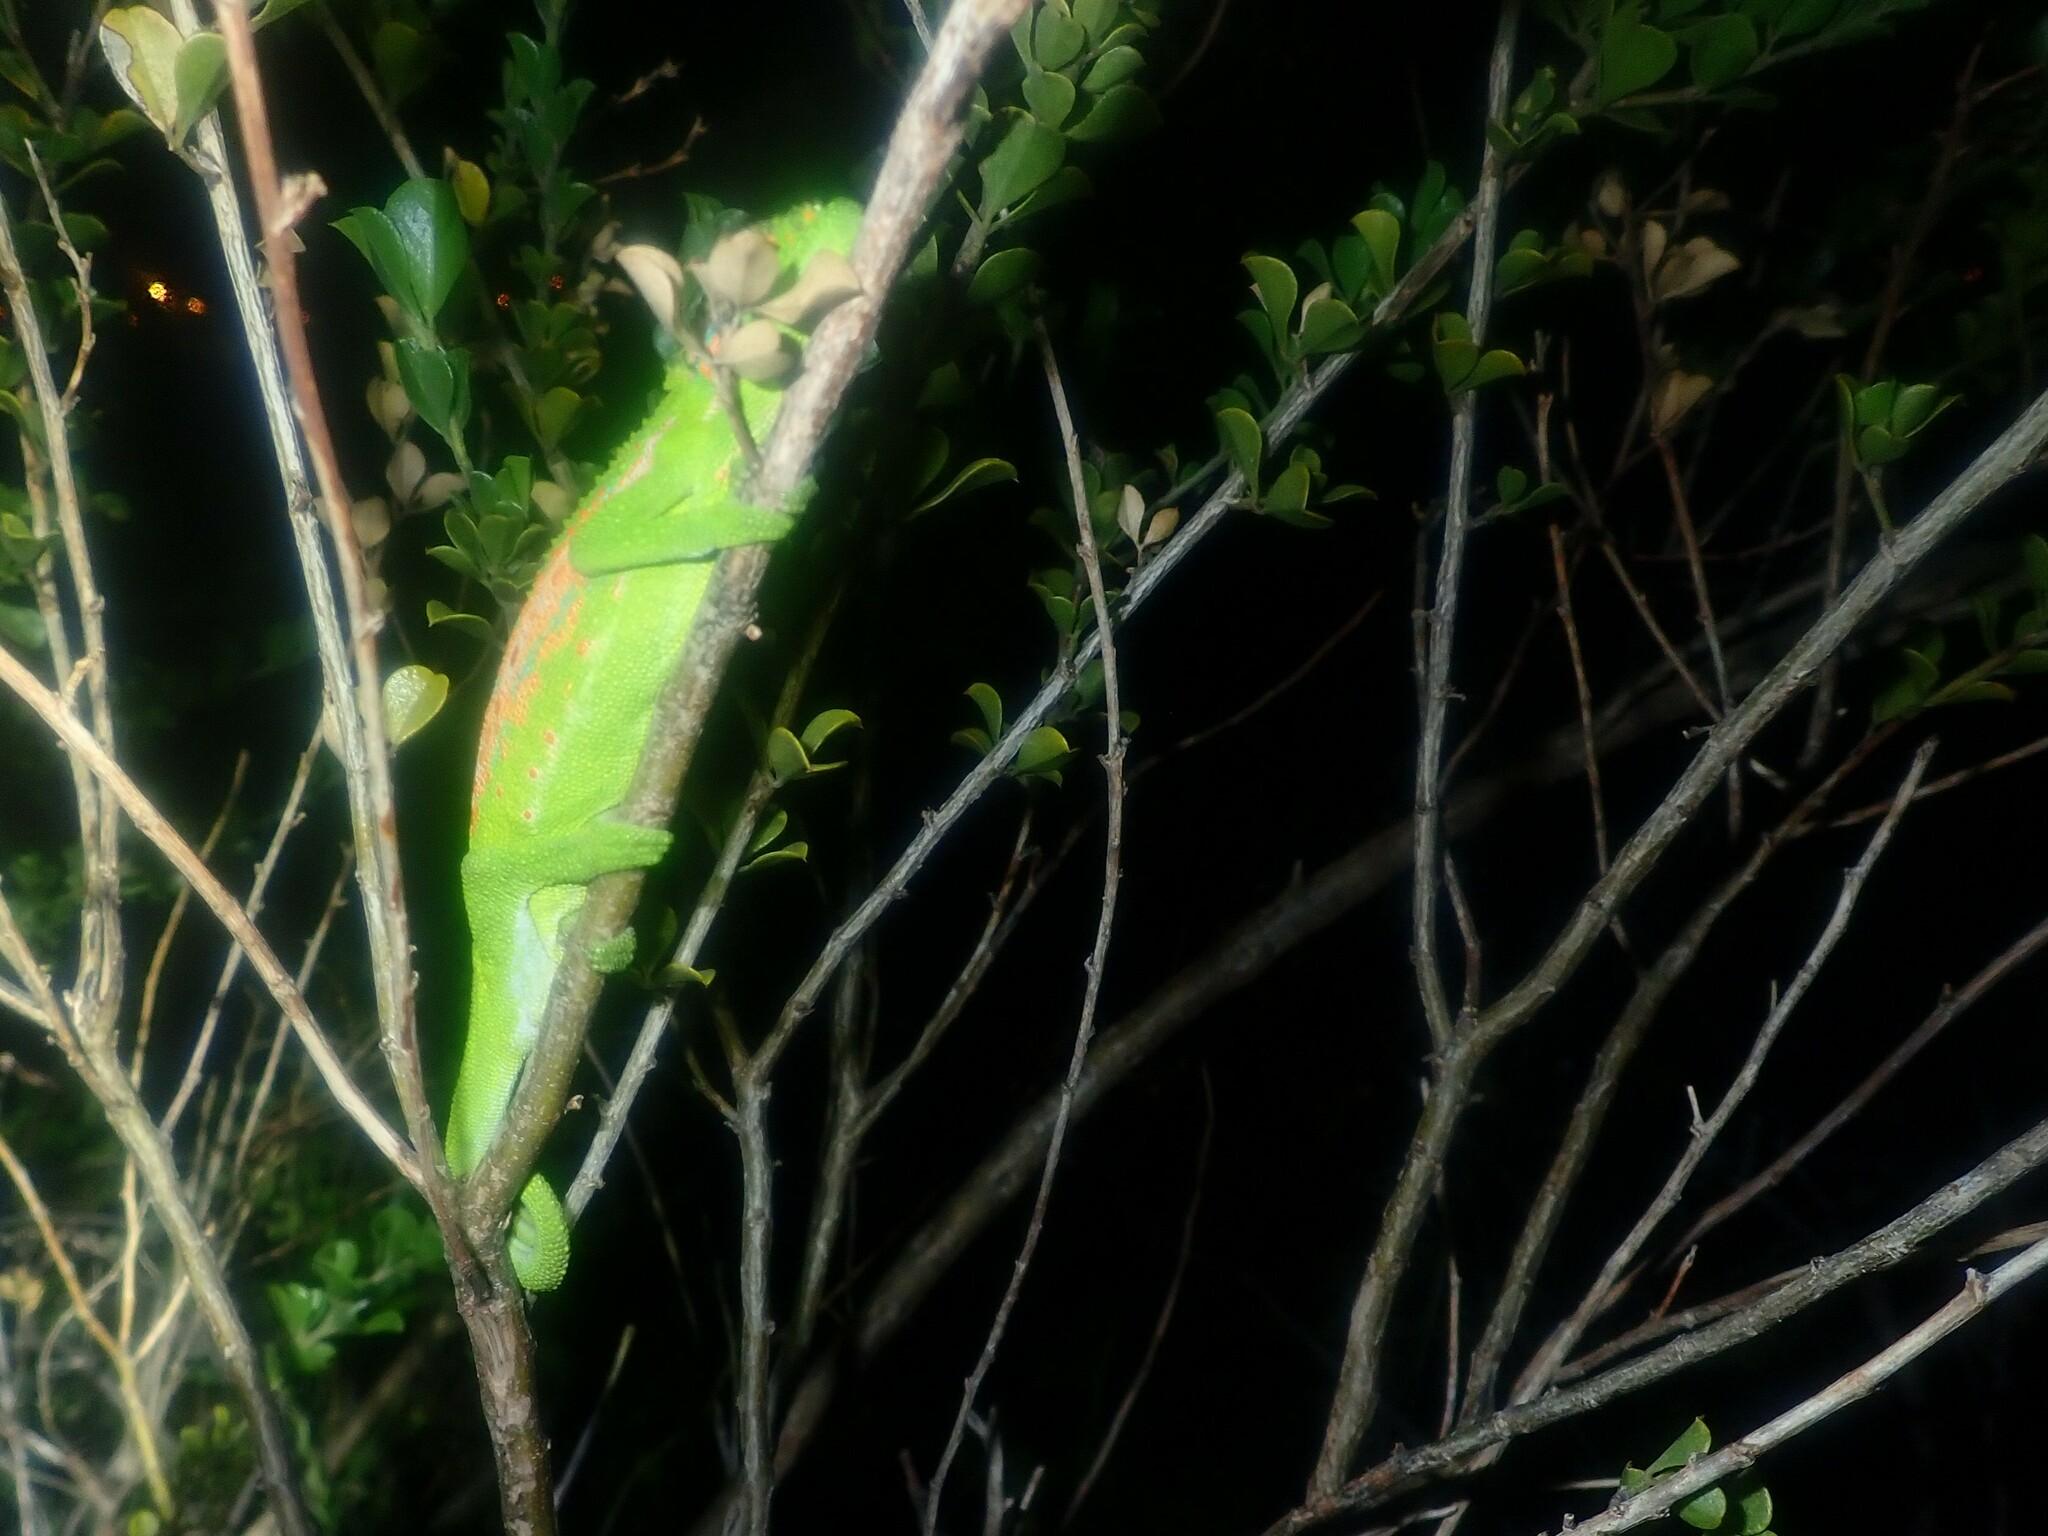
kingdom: Animalia
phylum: Chordata
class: Squamata
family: Chamaeleonidae
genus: Bradypodion
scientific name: Bradypodion pumilum
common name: Cape dwarf chameleon
